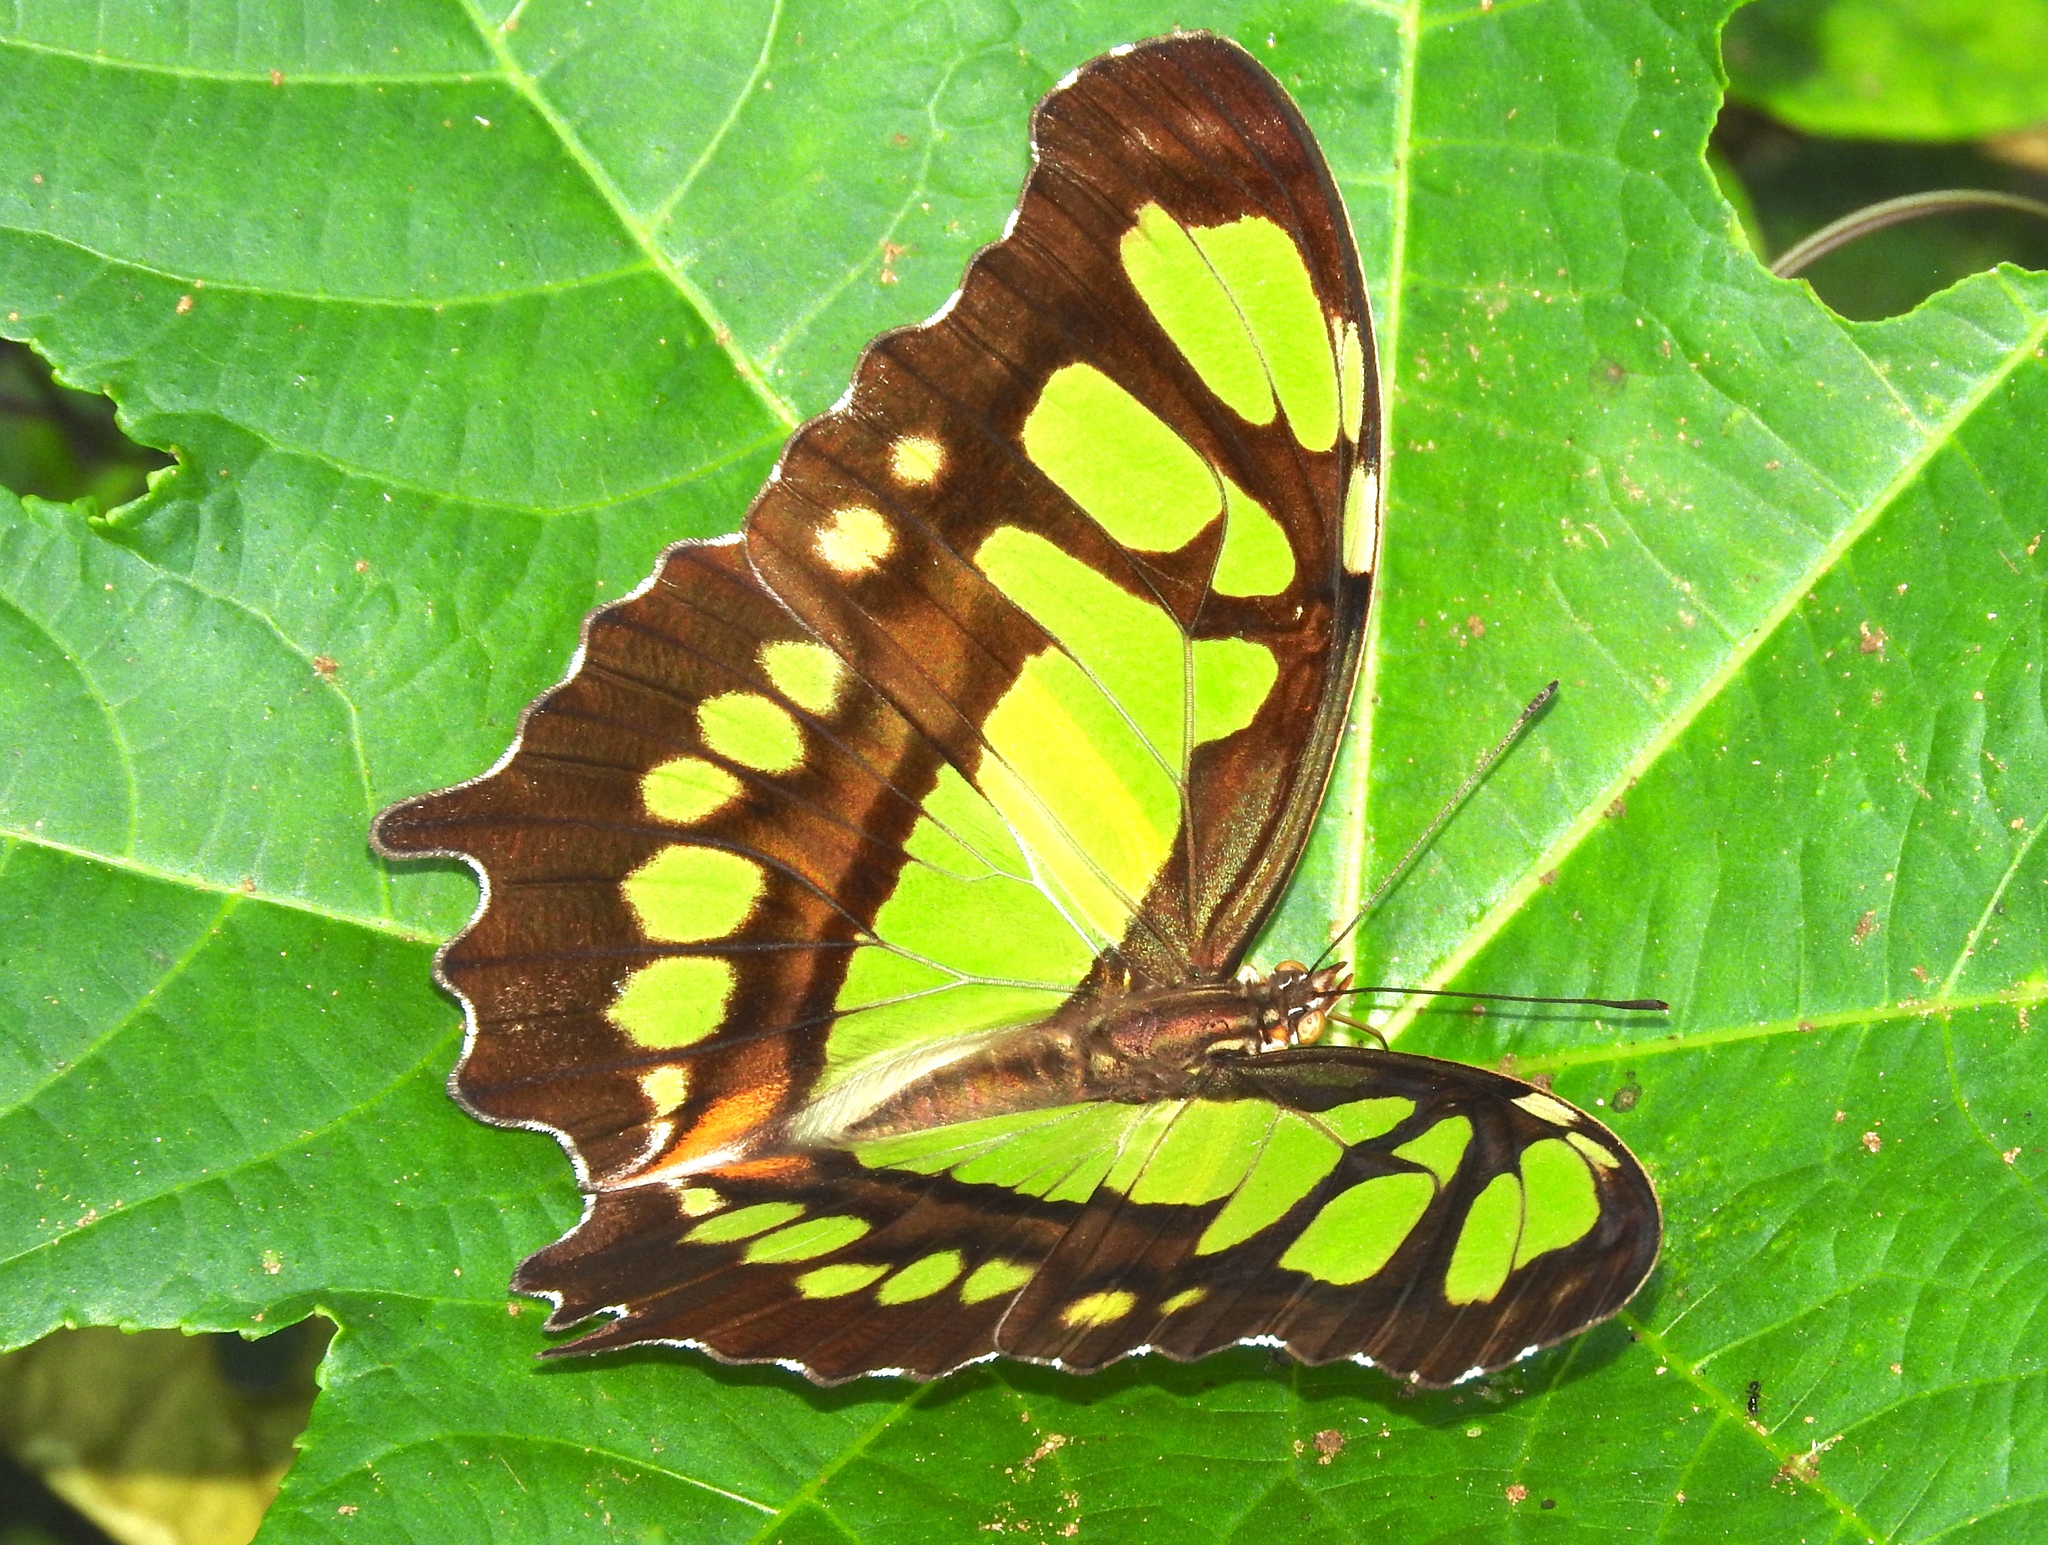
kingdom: Animalia
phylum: Arthropoda
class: Insecta
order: Lepidoptera
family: Nymphalidae
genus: Siproeta
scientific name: Siproeta stelenes
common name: Malachite
